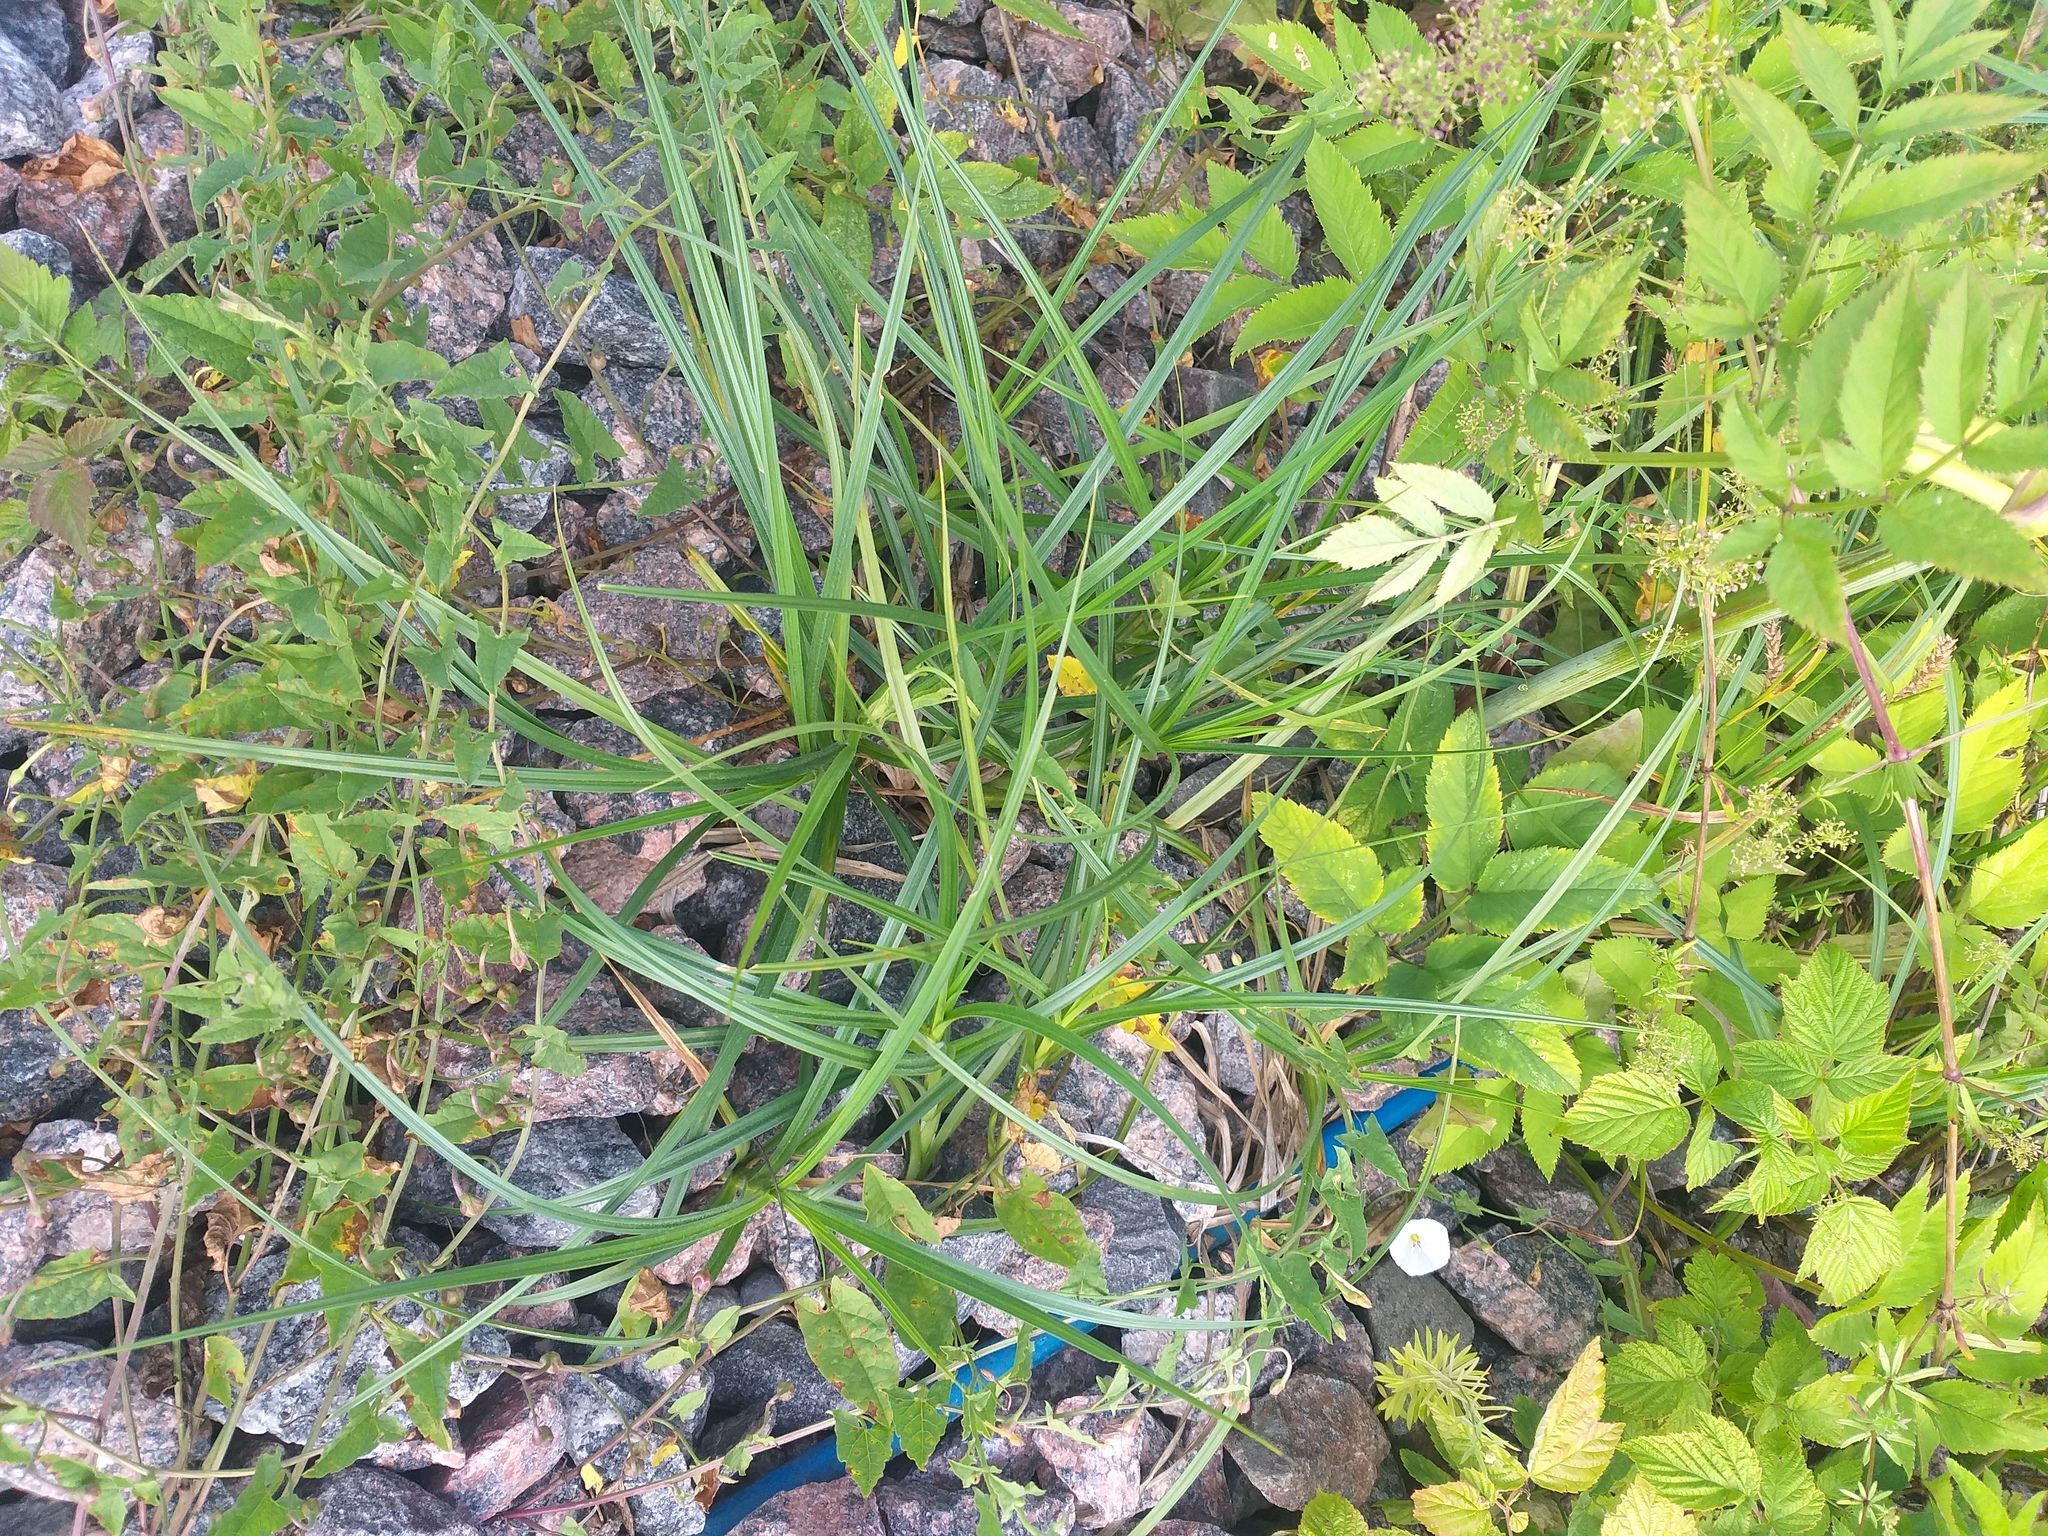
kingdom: Plantae
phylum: Tracheophyta
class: Liliopsida
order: Poales
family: Cyperaceae
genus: Carex
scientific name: Carex hirta
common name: Hairy sedge
